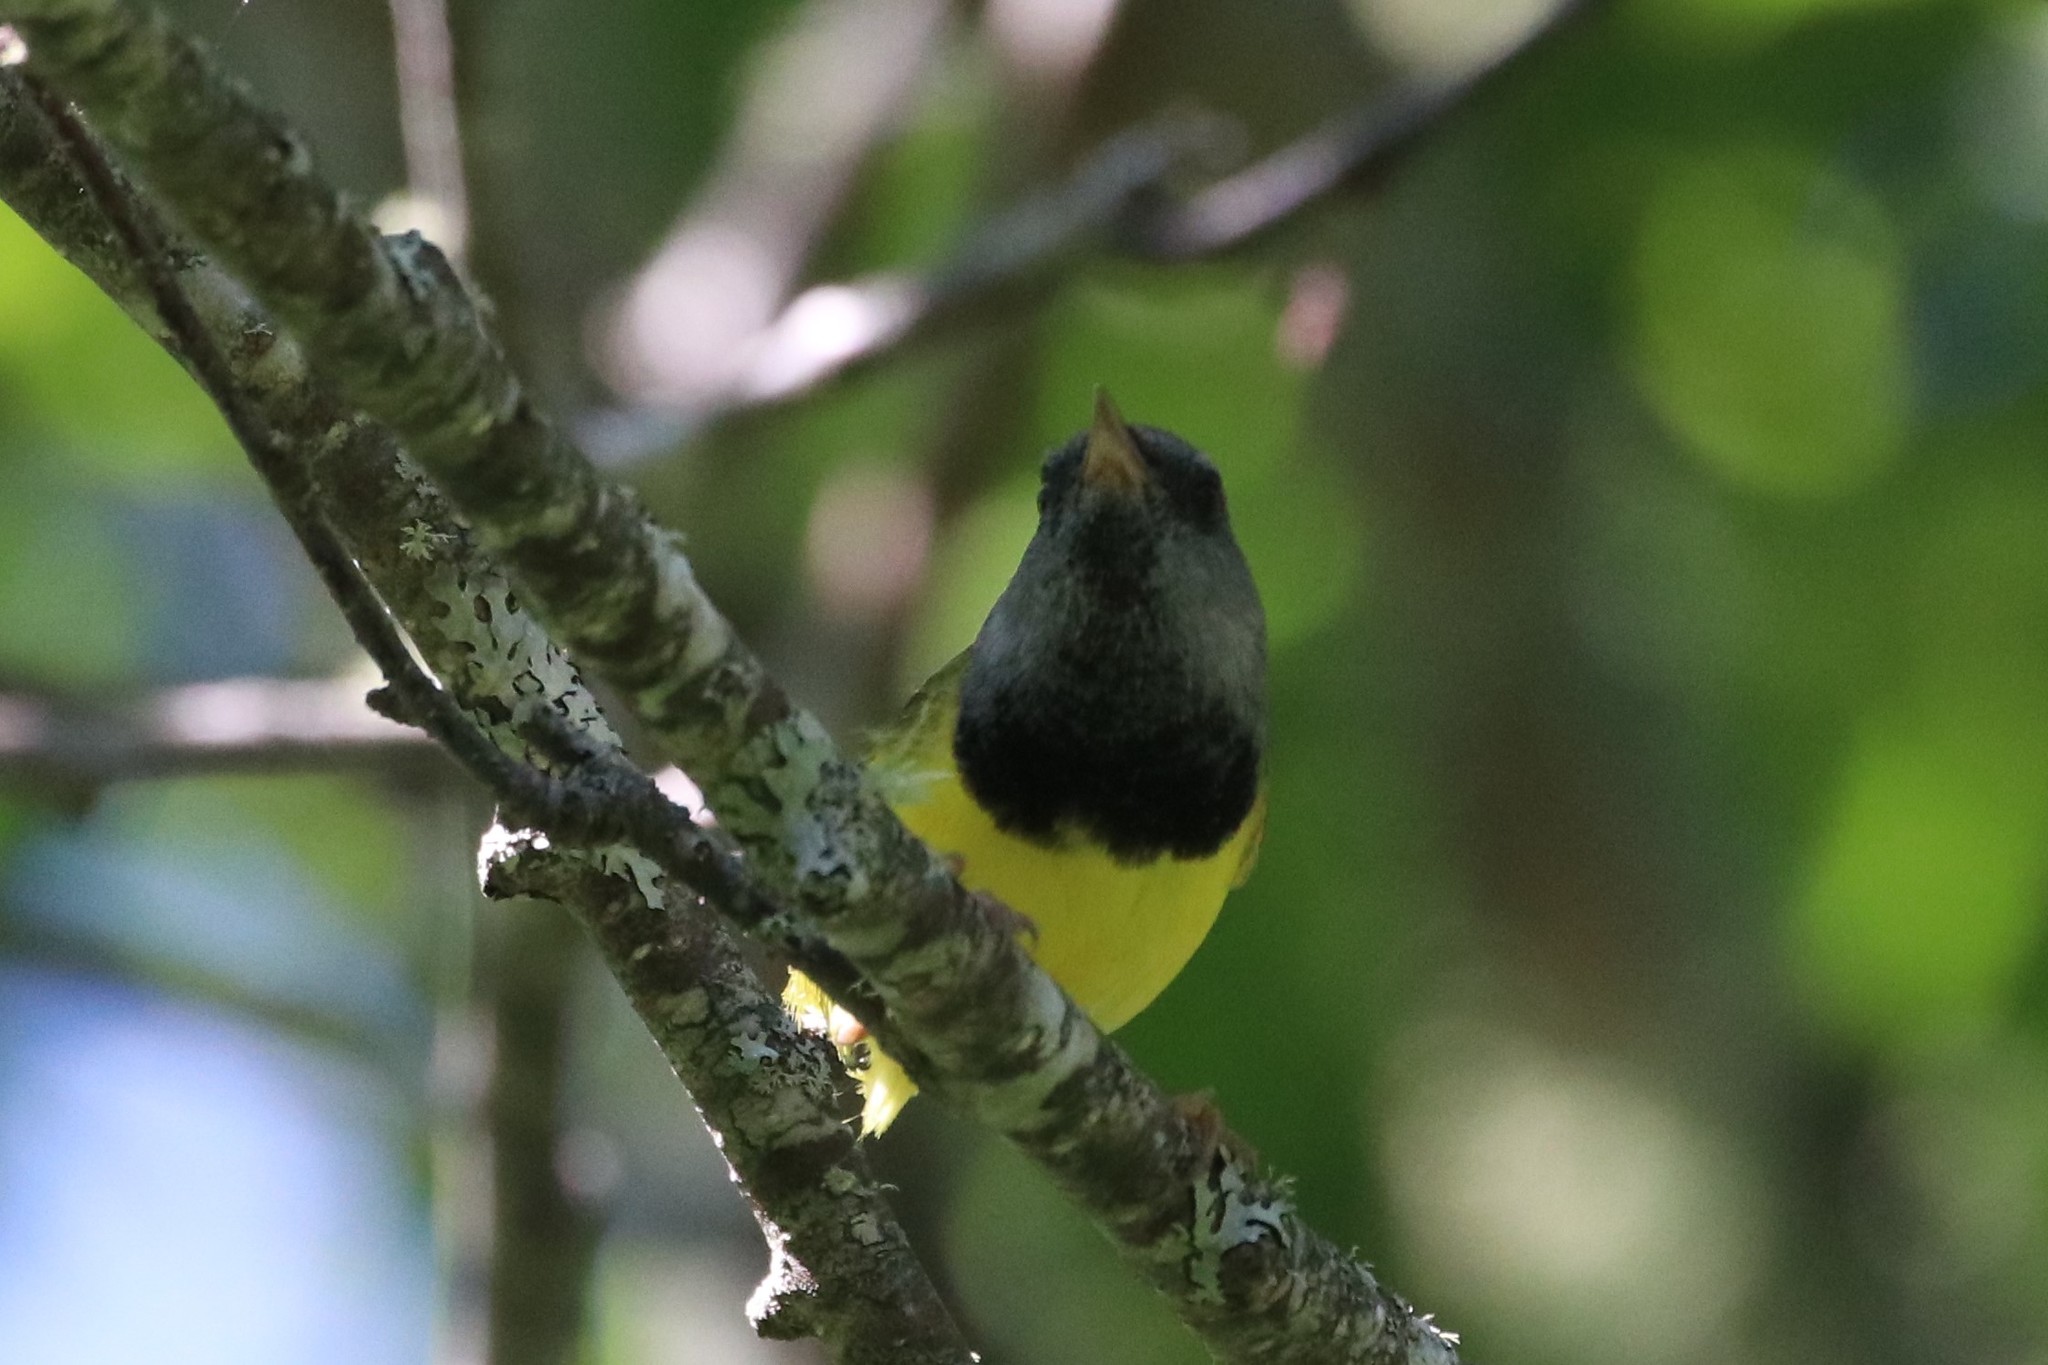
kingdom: Animalia
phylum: Chordata
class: Aves
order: Passeriformes
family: Parulidae
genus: Geothlypis
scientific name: Geothlypis philadelphia
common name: Mourning warbler
